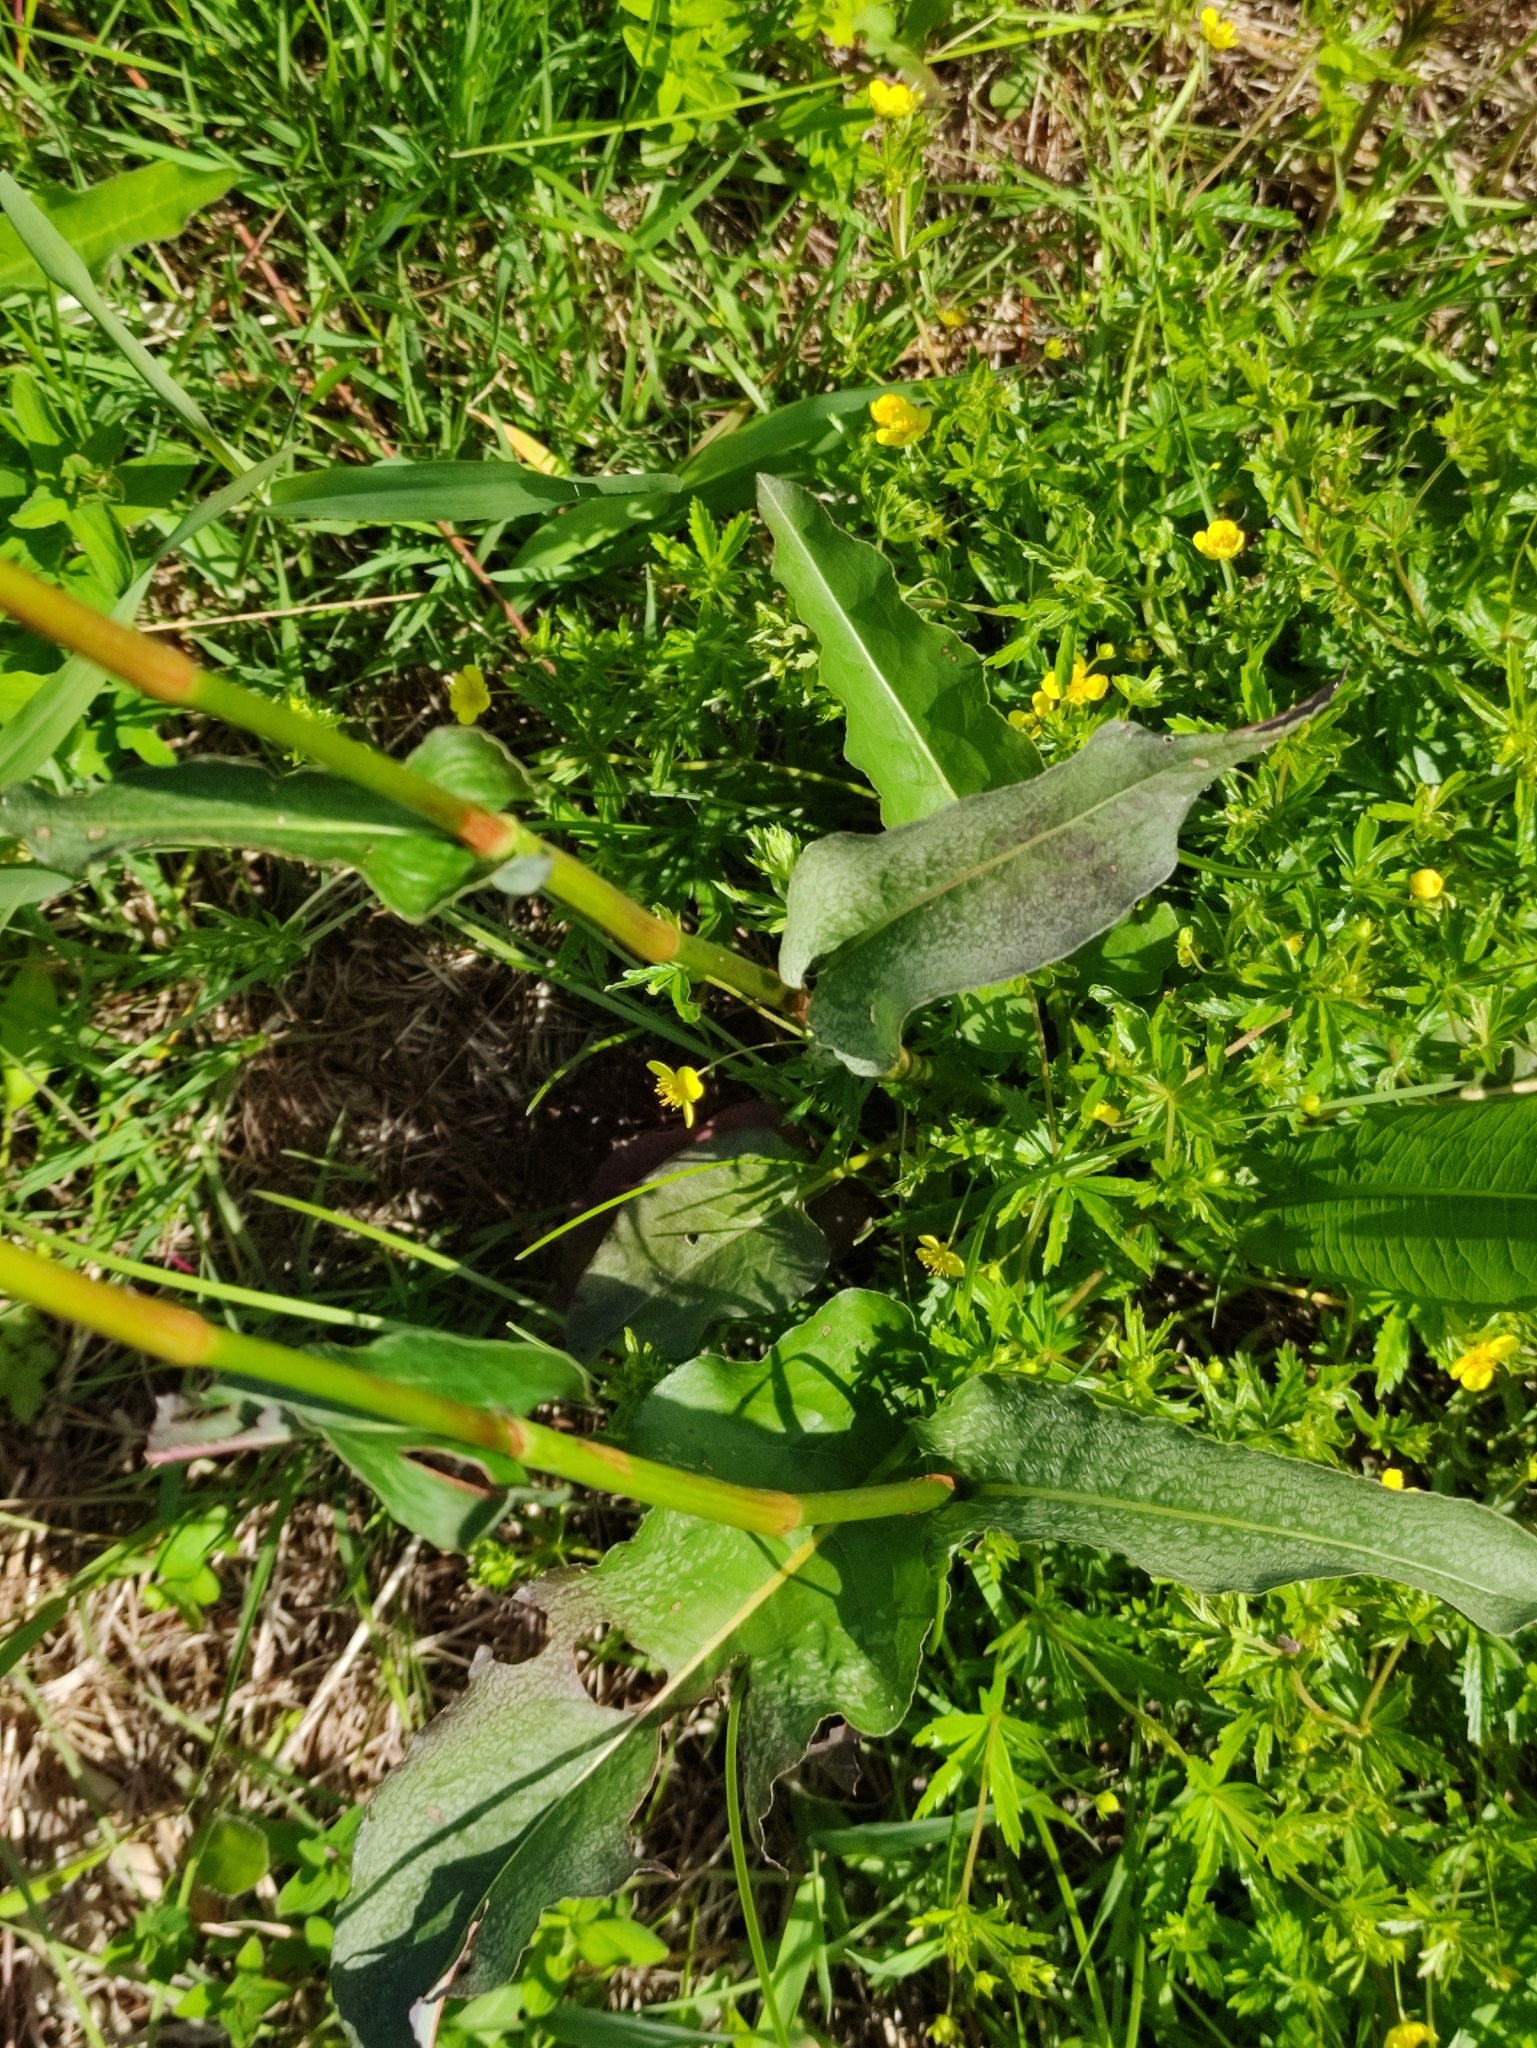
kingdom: Plantae
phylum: Tracheophyta
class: Magnoliopsida
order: Caryophyllales
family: Polygonaceae
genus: Bistorta
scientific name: Bistorta officinalis
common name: Common bistort
